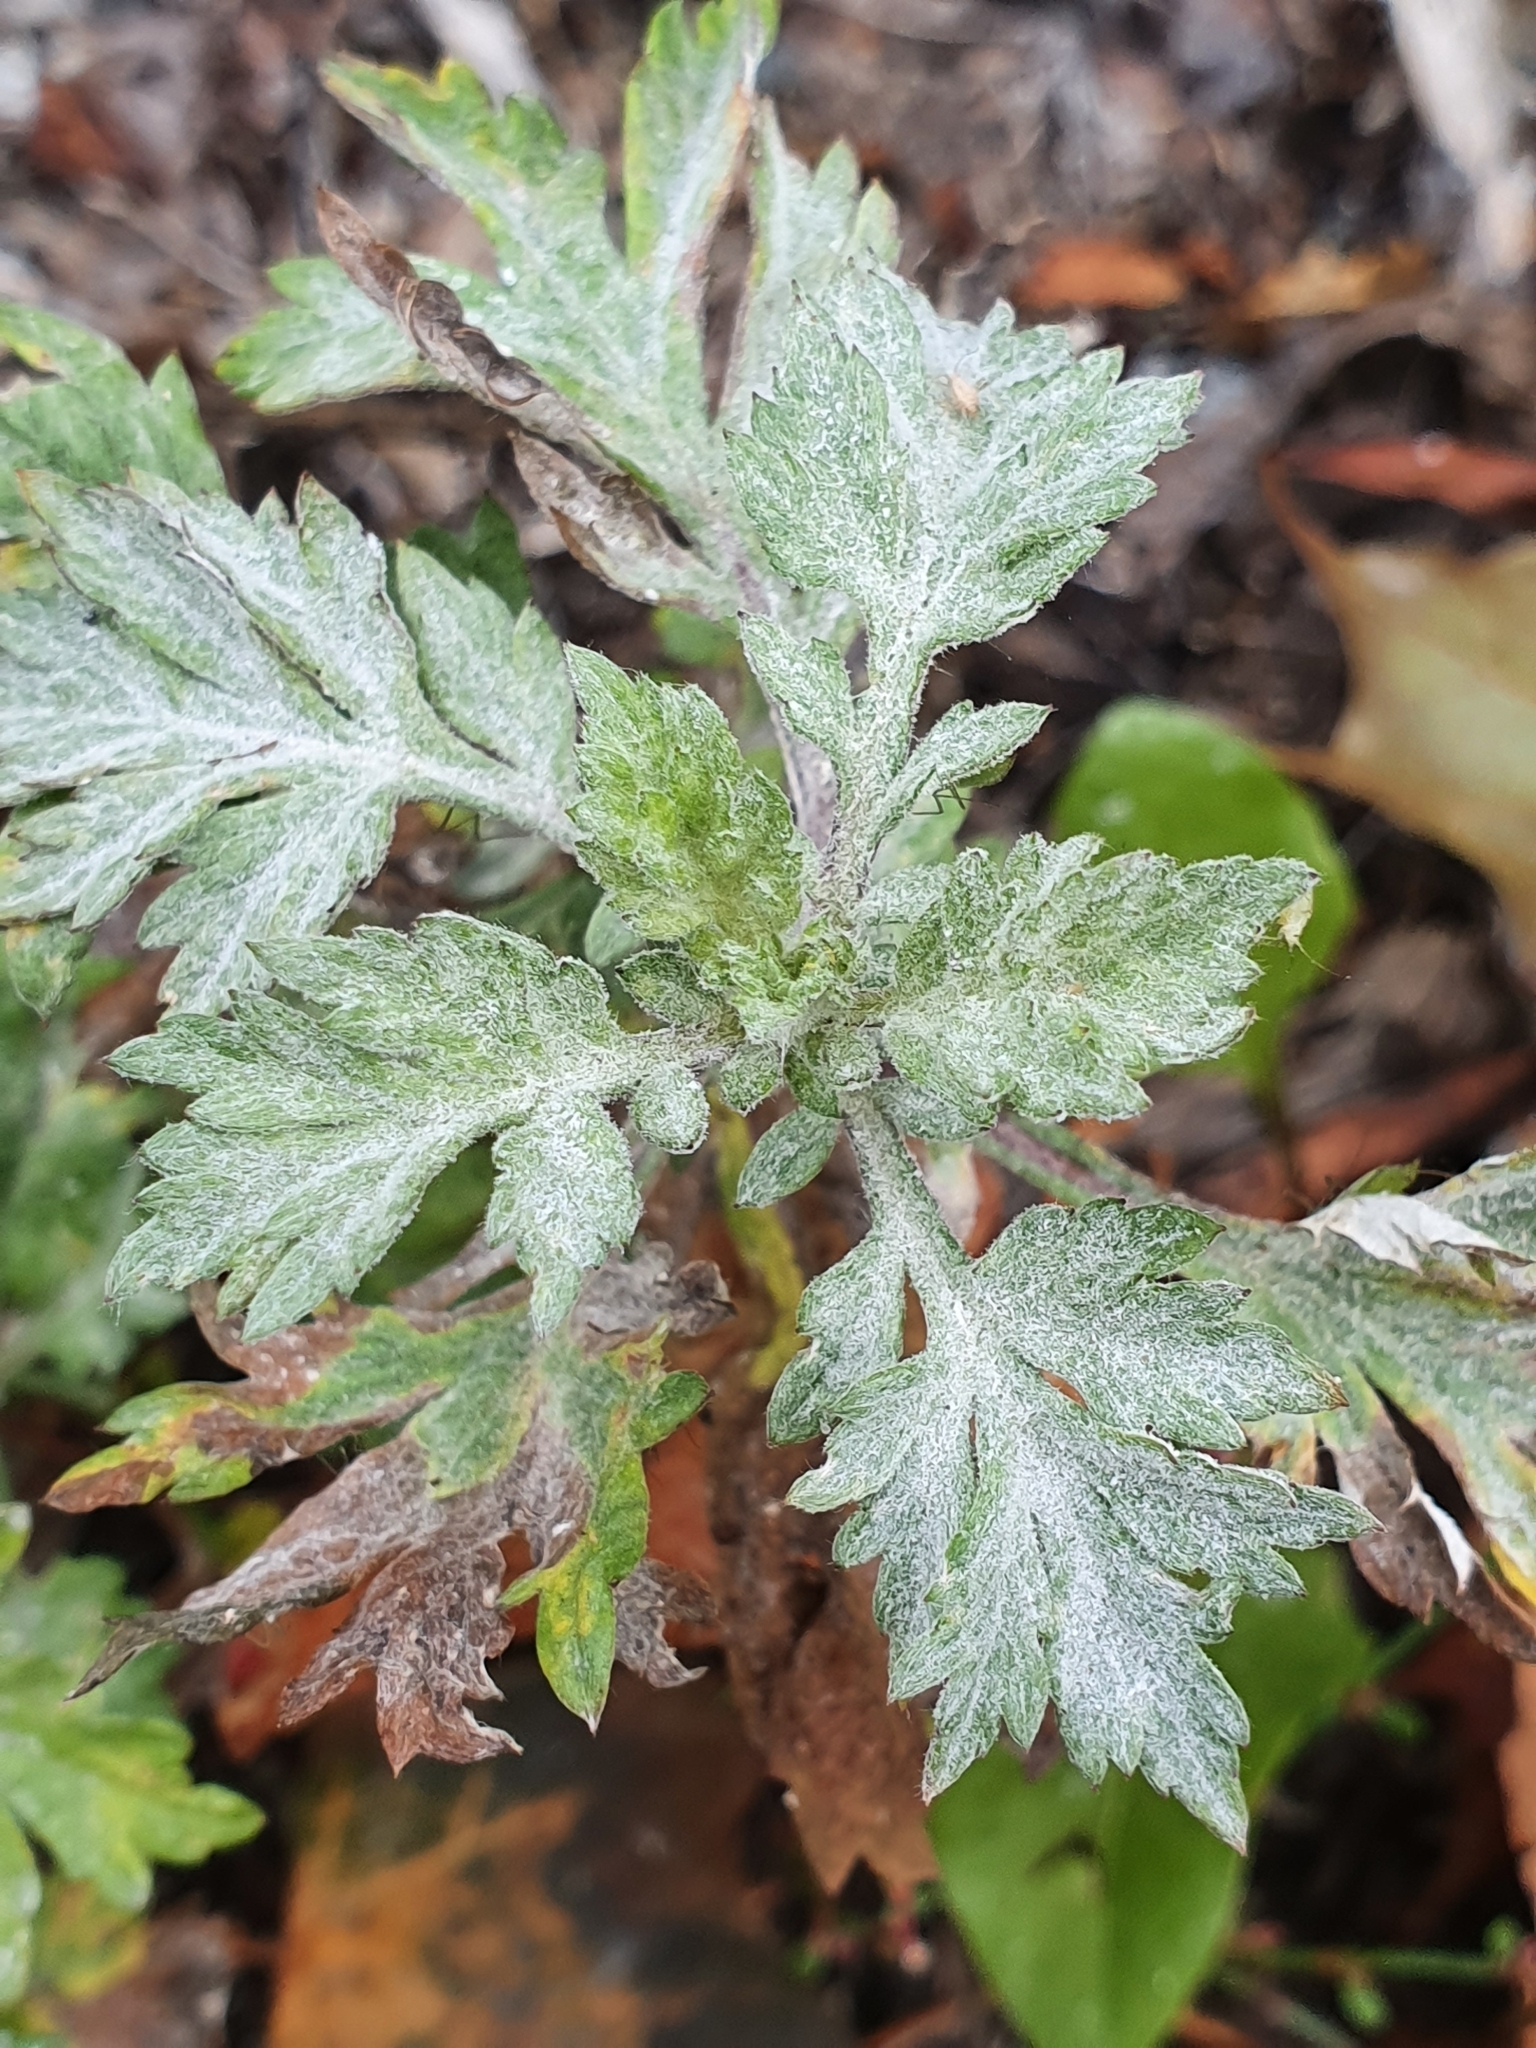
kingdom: Fungi
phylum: Ascomycota
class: Leotiomycetes
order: Helotiales
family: Erysiphaceae
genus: Golovinomyces
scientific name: Golovinomyces artemisiae
